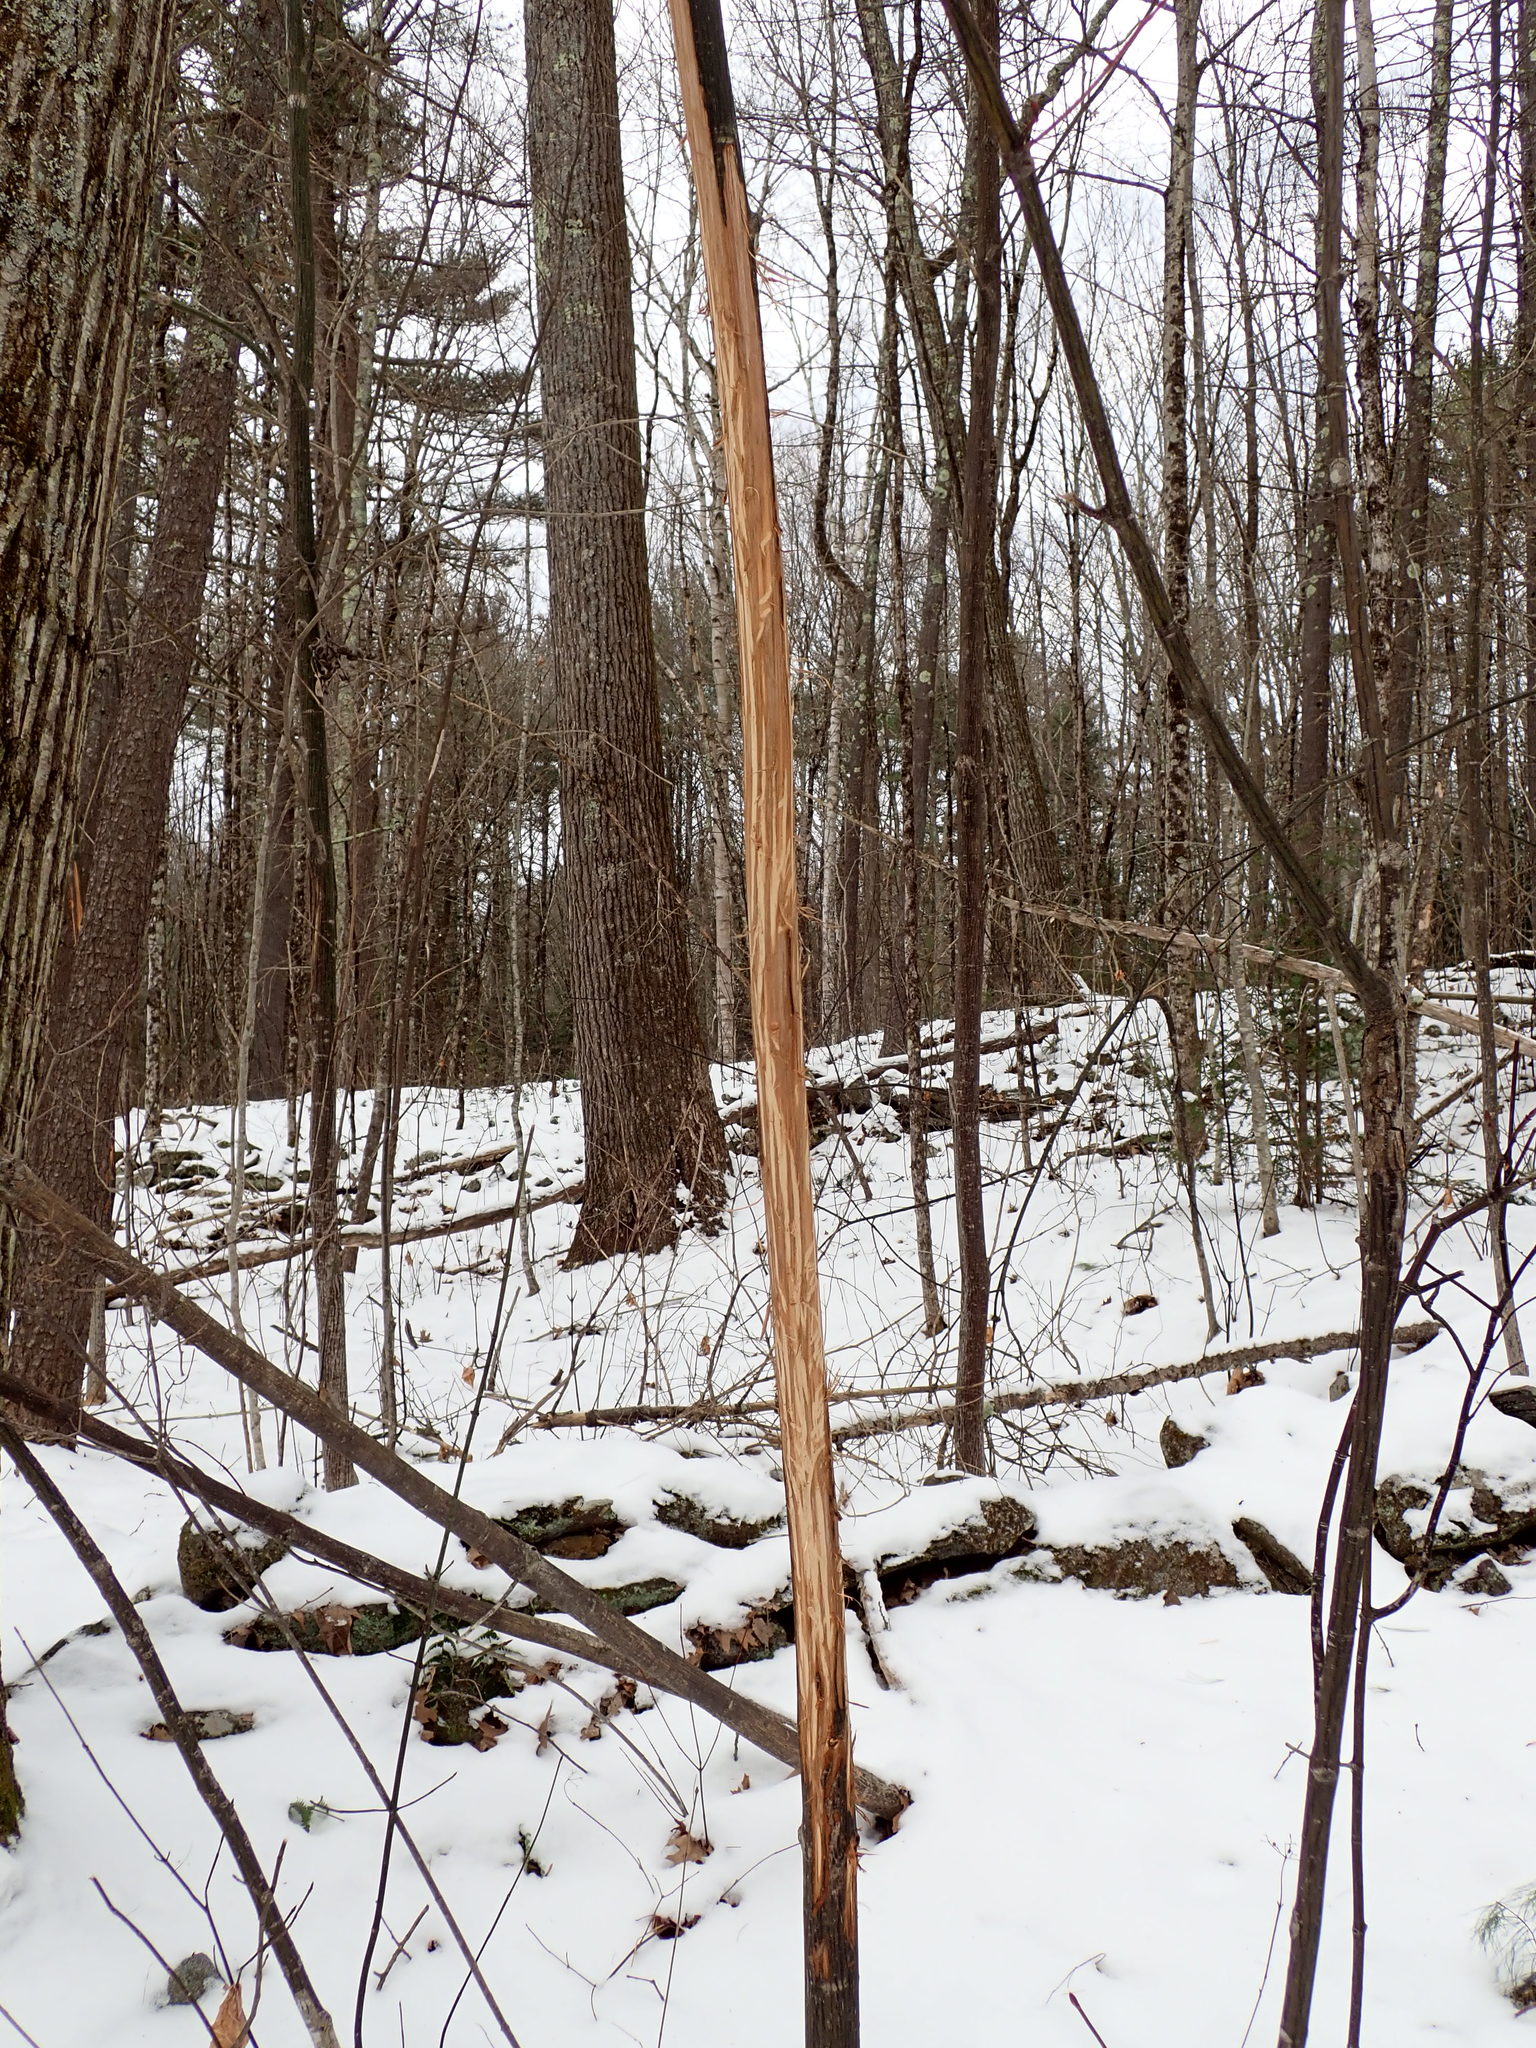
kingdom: Animalia
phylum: Chordata
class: Mammalia
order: Artiodactyla
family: Cervidae
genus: Alces
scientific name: Alces alces
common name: Moose
